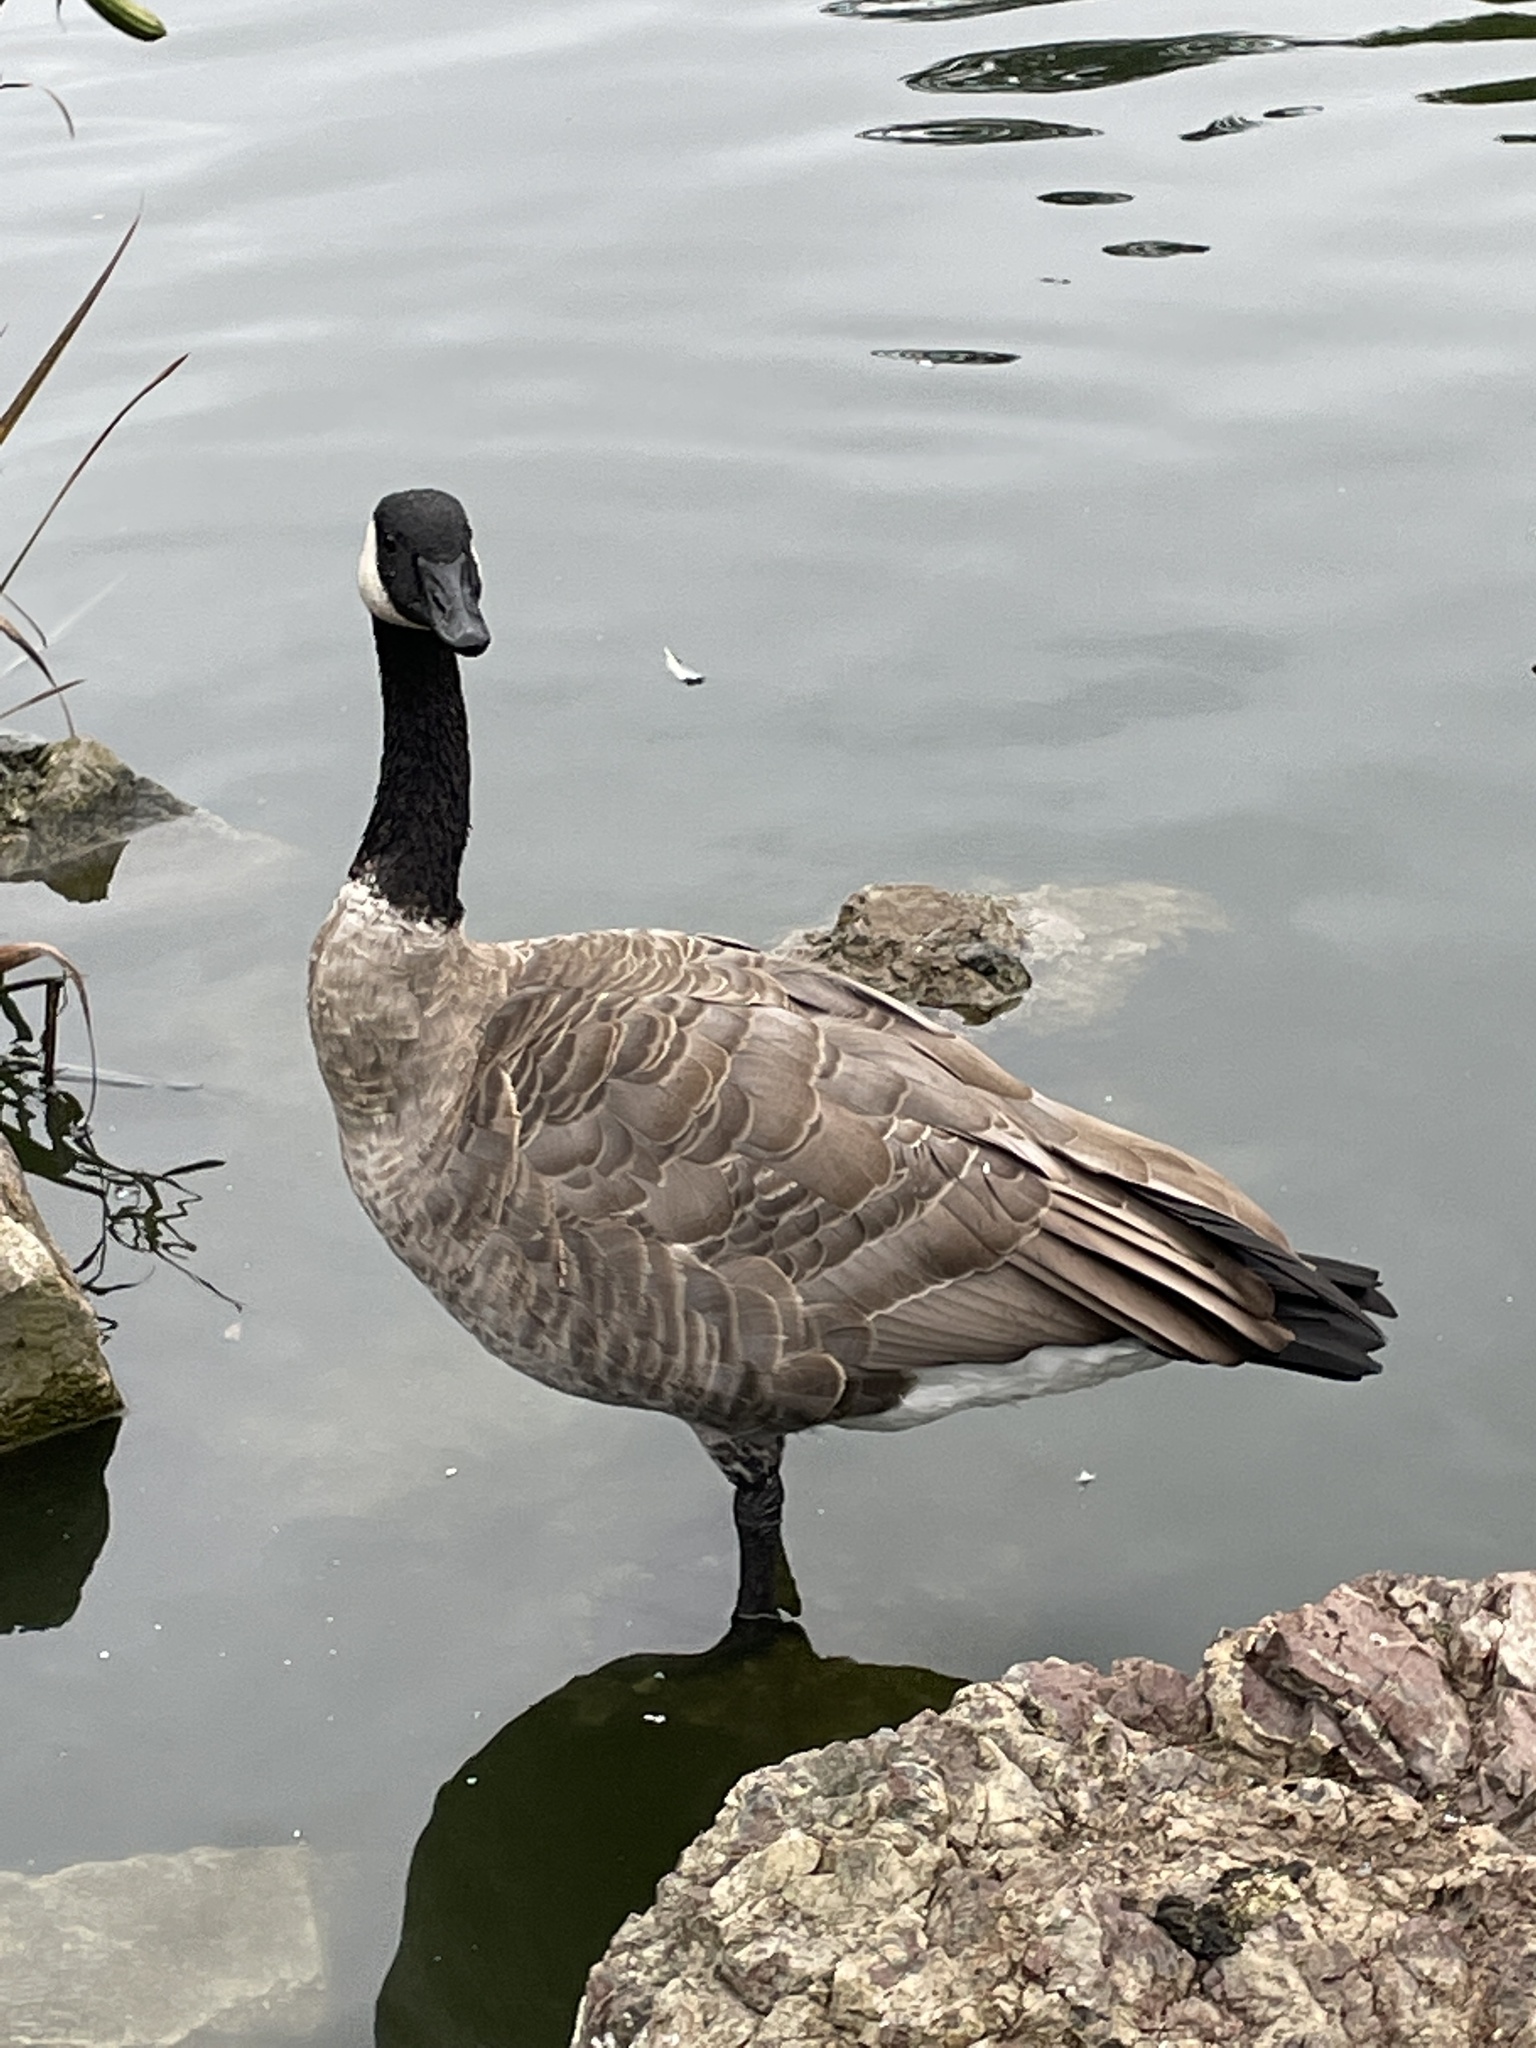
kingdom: Animalia
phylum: Chordata
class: Aves
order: Anseriformes
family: Anatidae
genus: Branta
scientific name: Branta canadensis
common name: Canada goose
